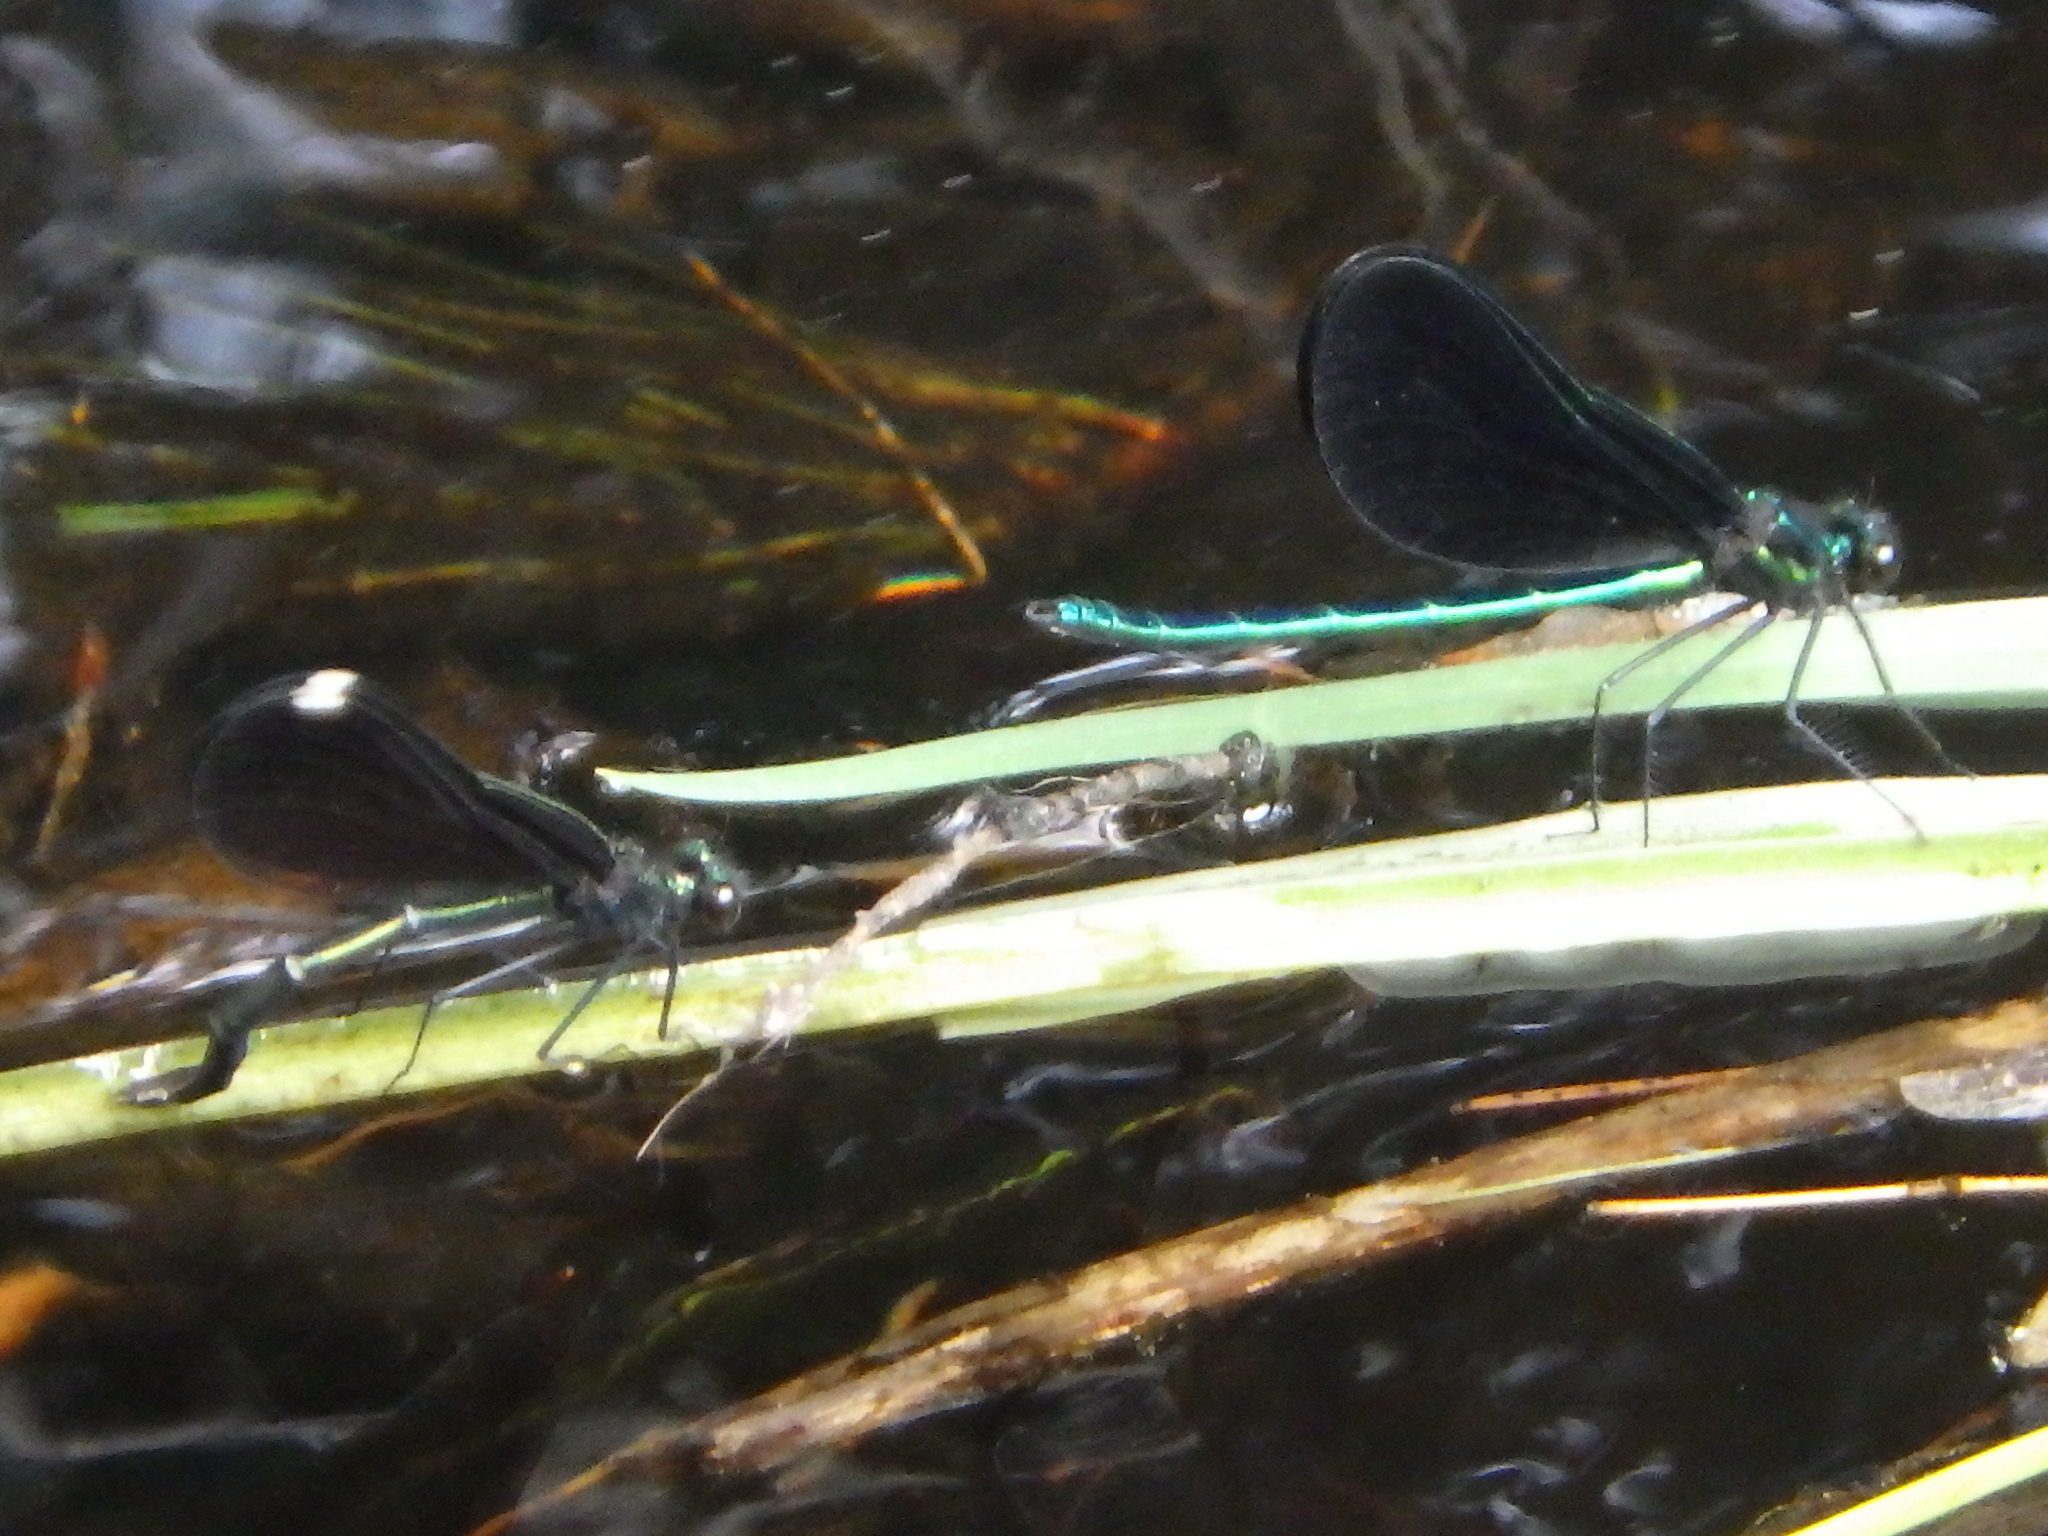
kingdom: Animalia
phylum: Arthropoda
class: Insecta
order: Odonata
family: Calopterygidae
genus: Calopteryx
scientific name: Calopteryx maculata
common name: Ebony jewelwing
